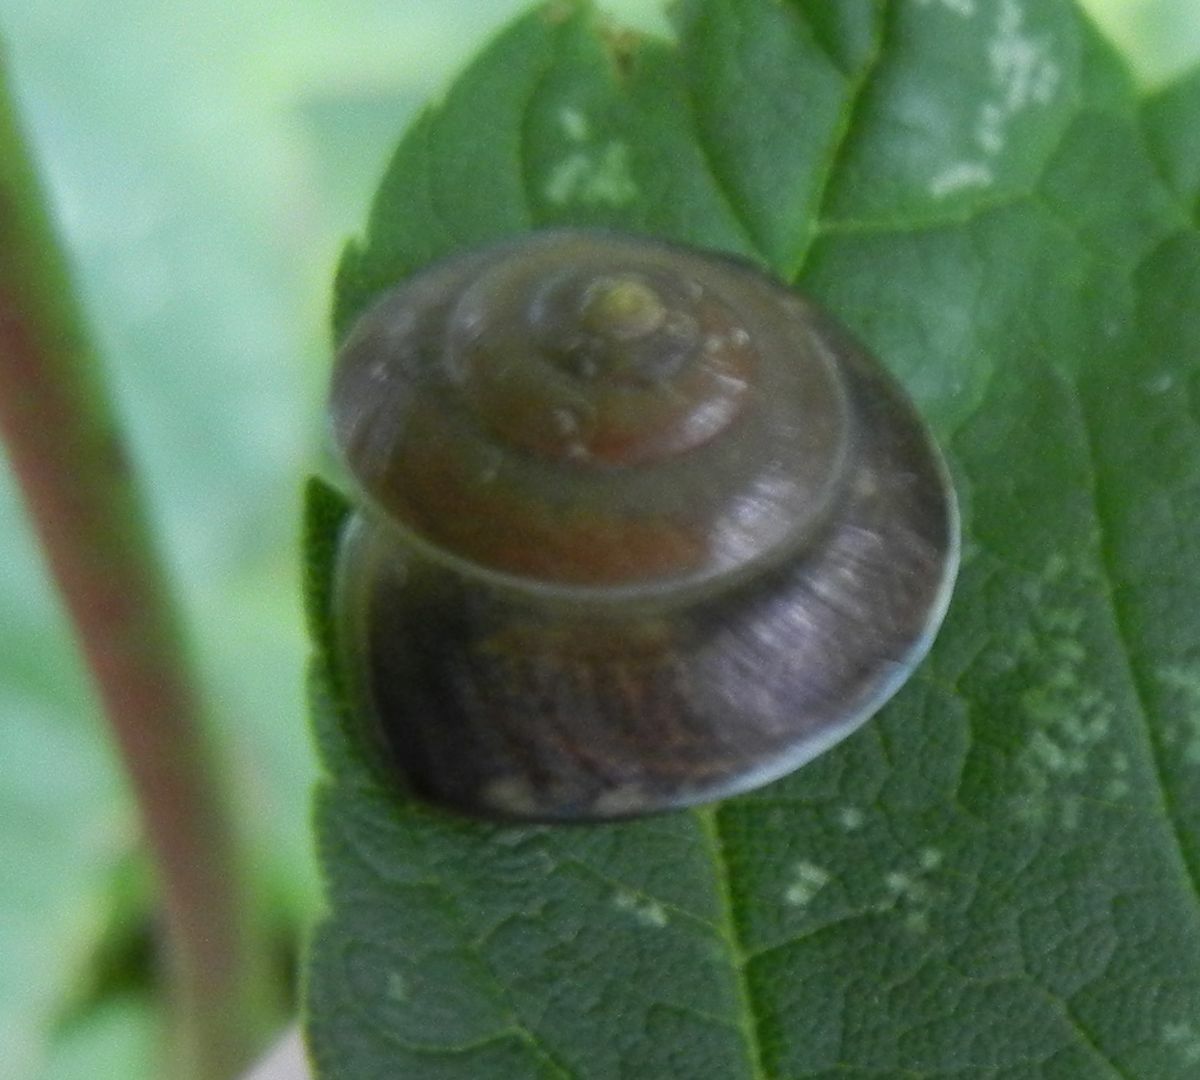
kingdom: Animalia
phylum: Mollusca
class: Gastropoda
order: Stylommatophora
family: Hygromiidae
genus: Hygromia
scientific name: Hygromia cinctella
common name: Girdled snail
